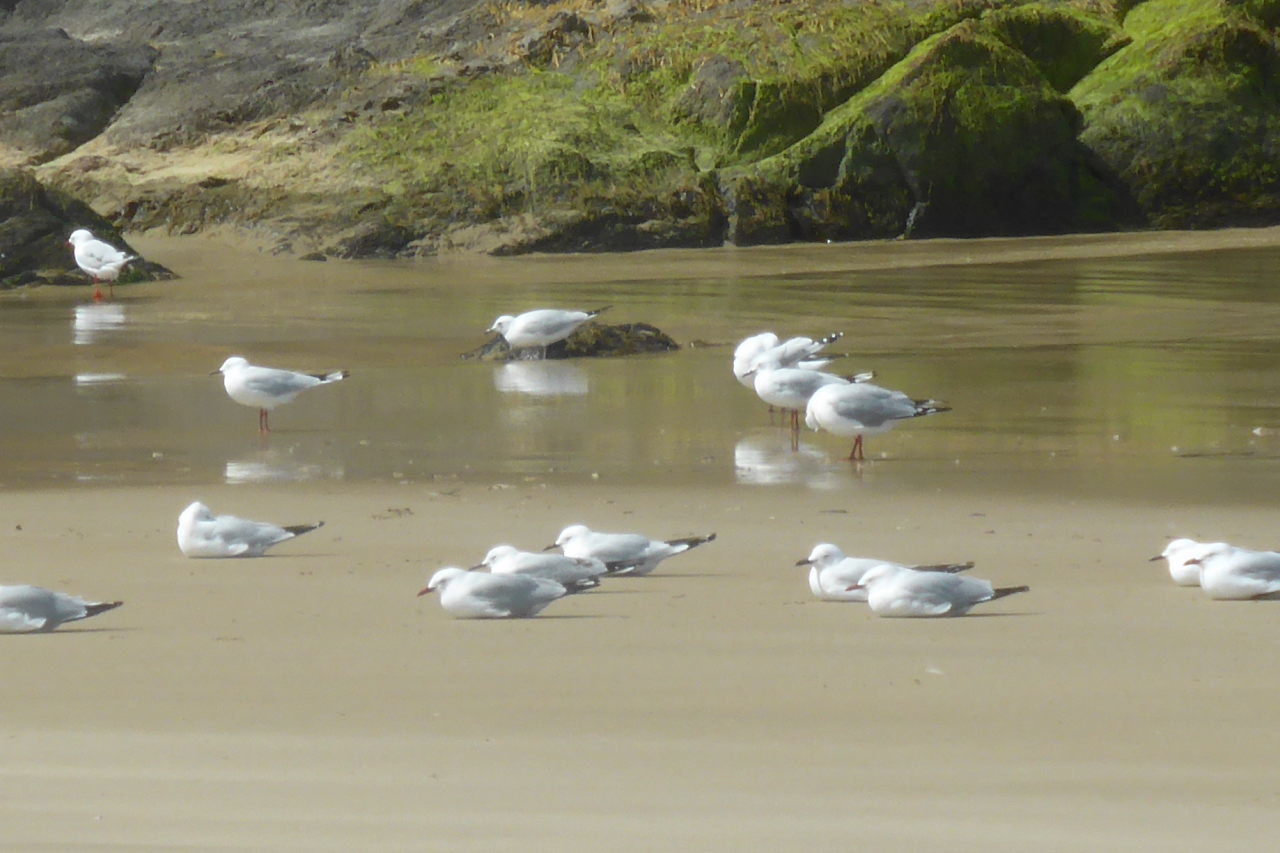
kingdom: Animalia
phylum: Chordata
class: Aves
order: Charadriiformes
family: Laridae
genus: Chroicocephalus
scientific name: Chroicocephalus novaehollandiae
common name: Silver gull
